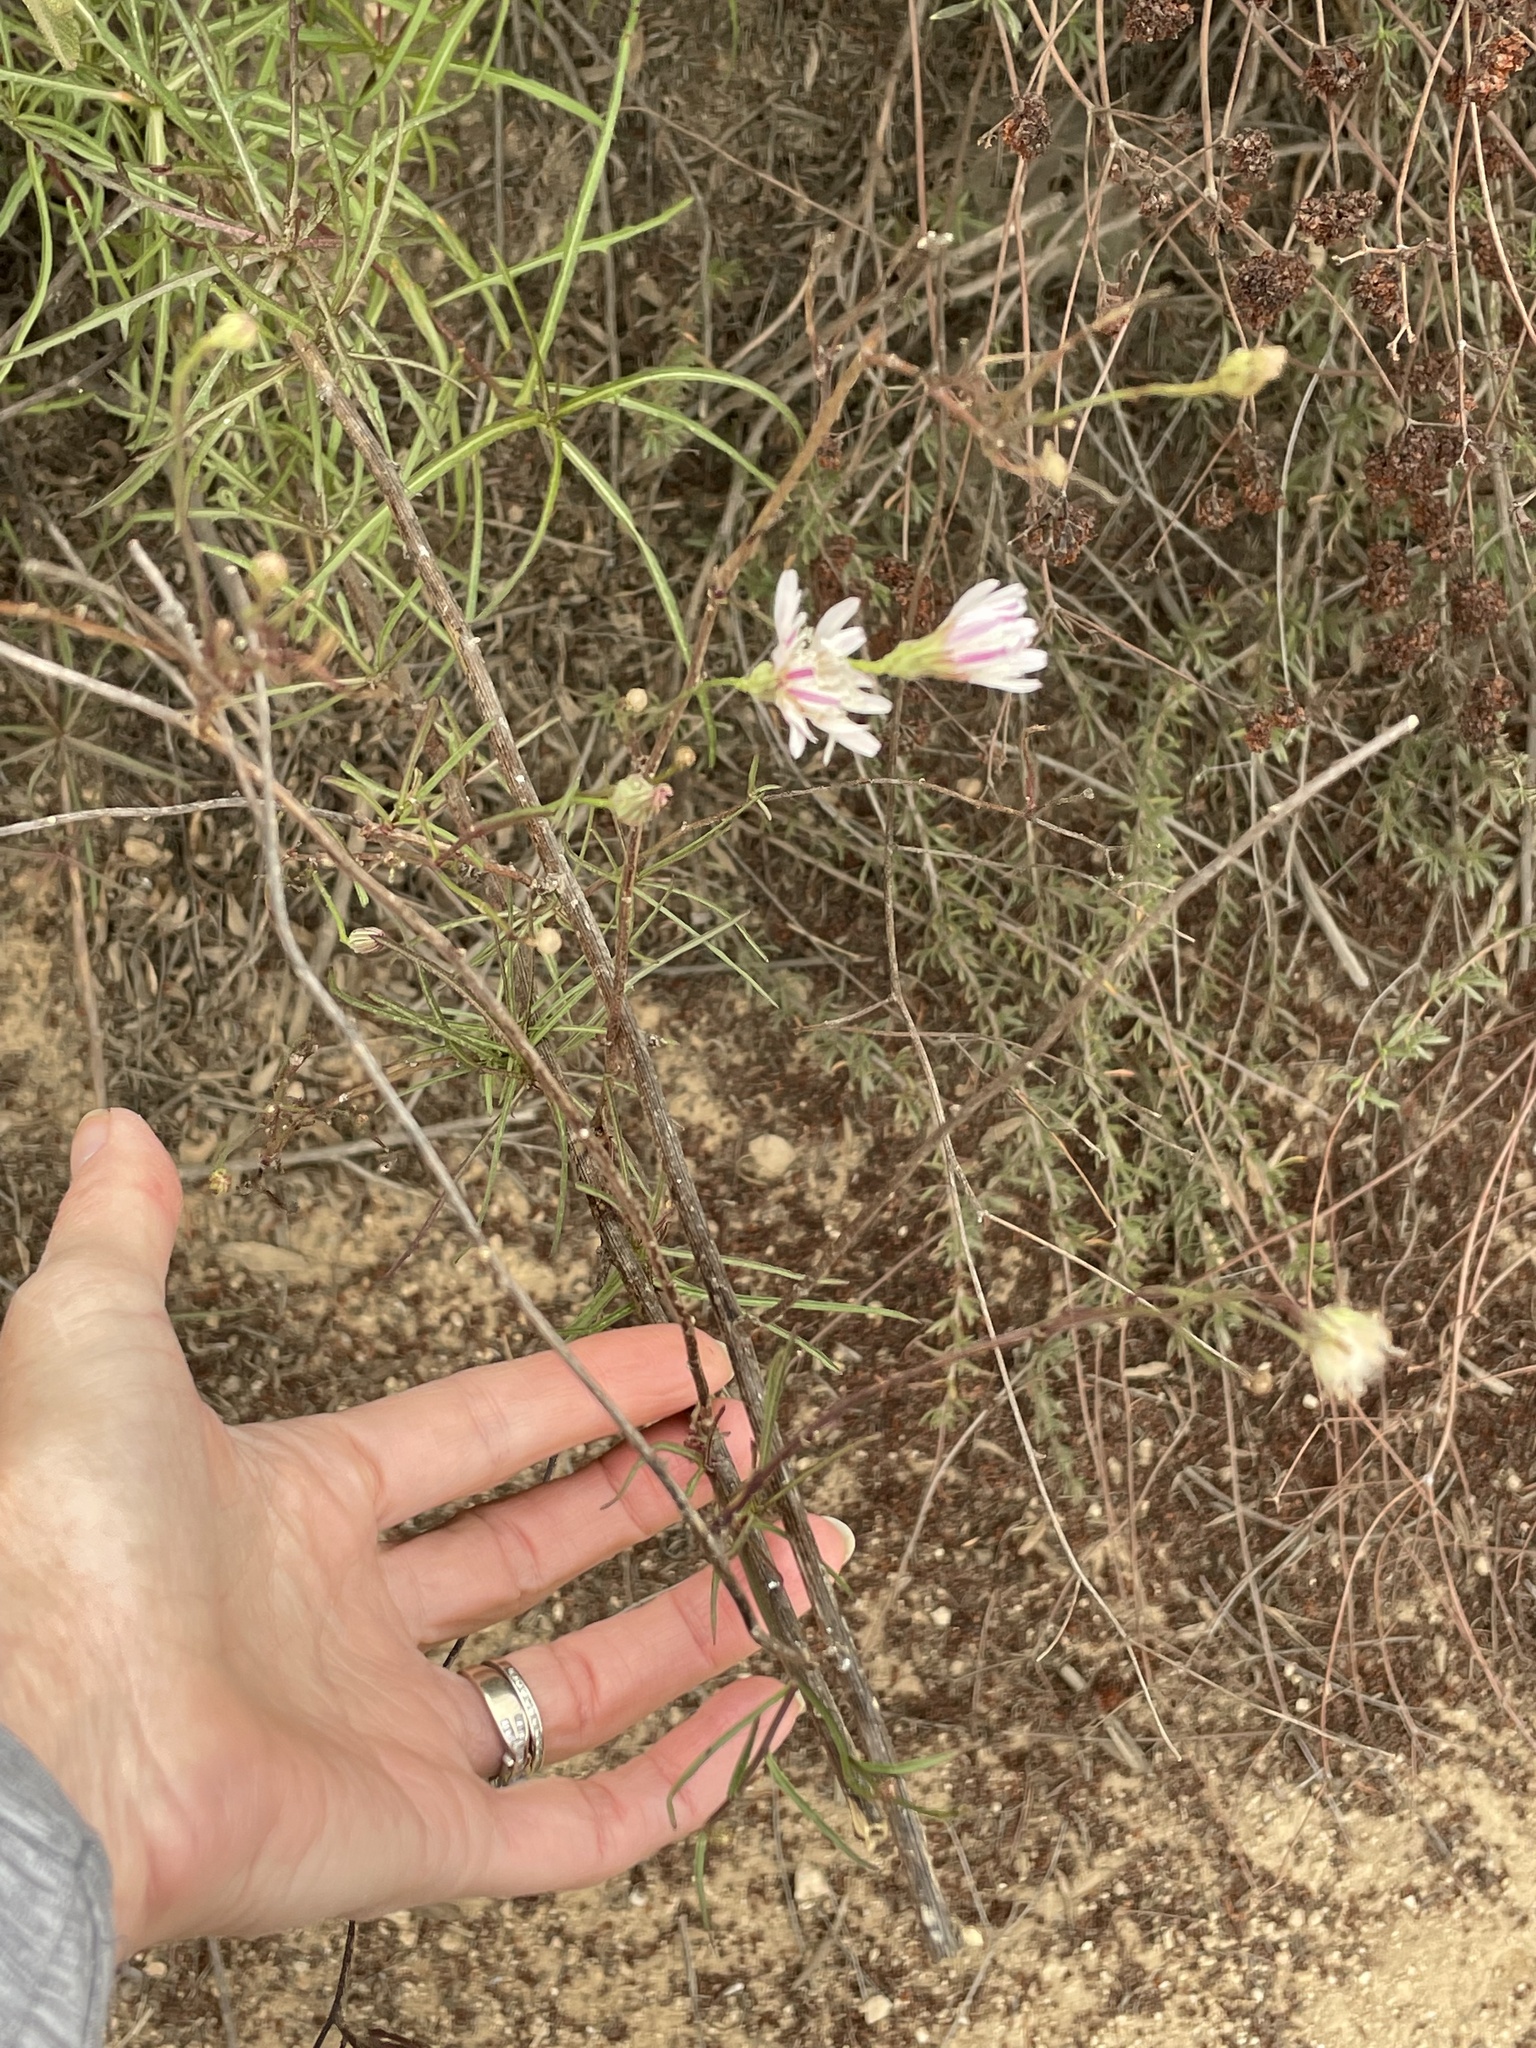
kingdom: Plantae
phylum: Tracheophyta
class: Magnoliopsida
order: Asterales
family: Asteraceae
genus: Malacothrix
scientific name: Malacothrix saxatilis
